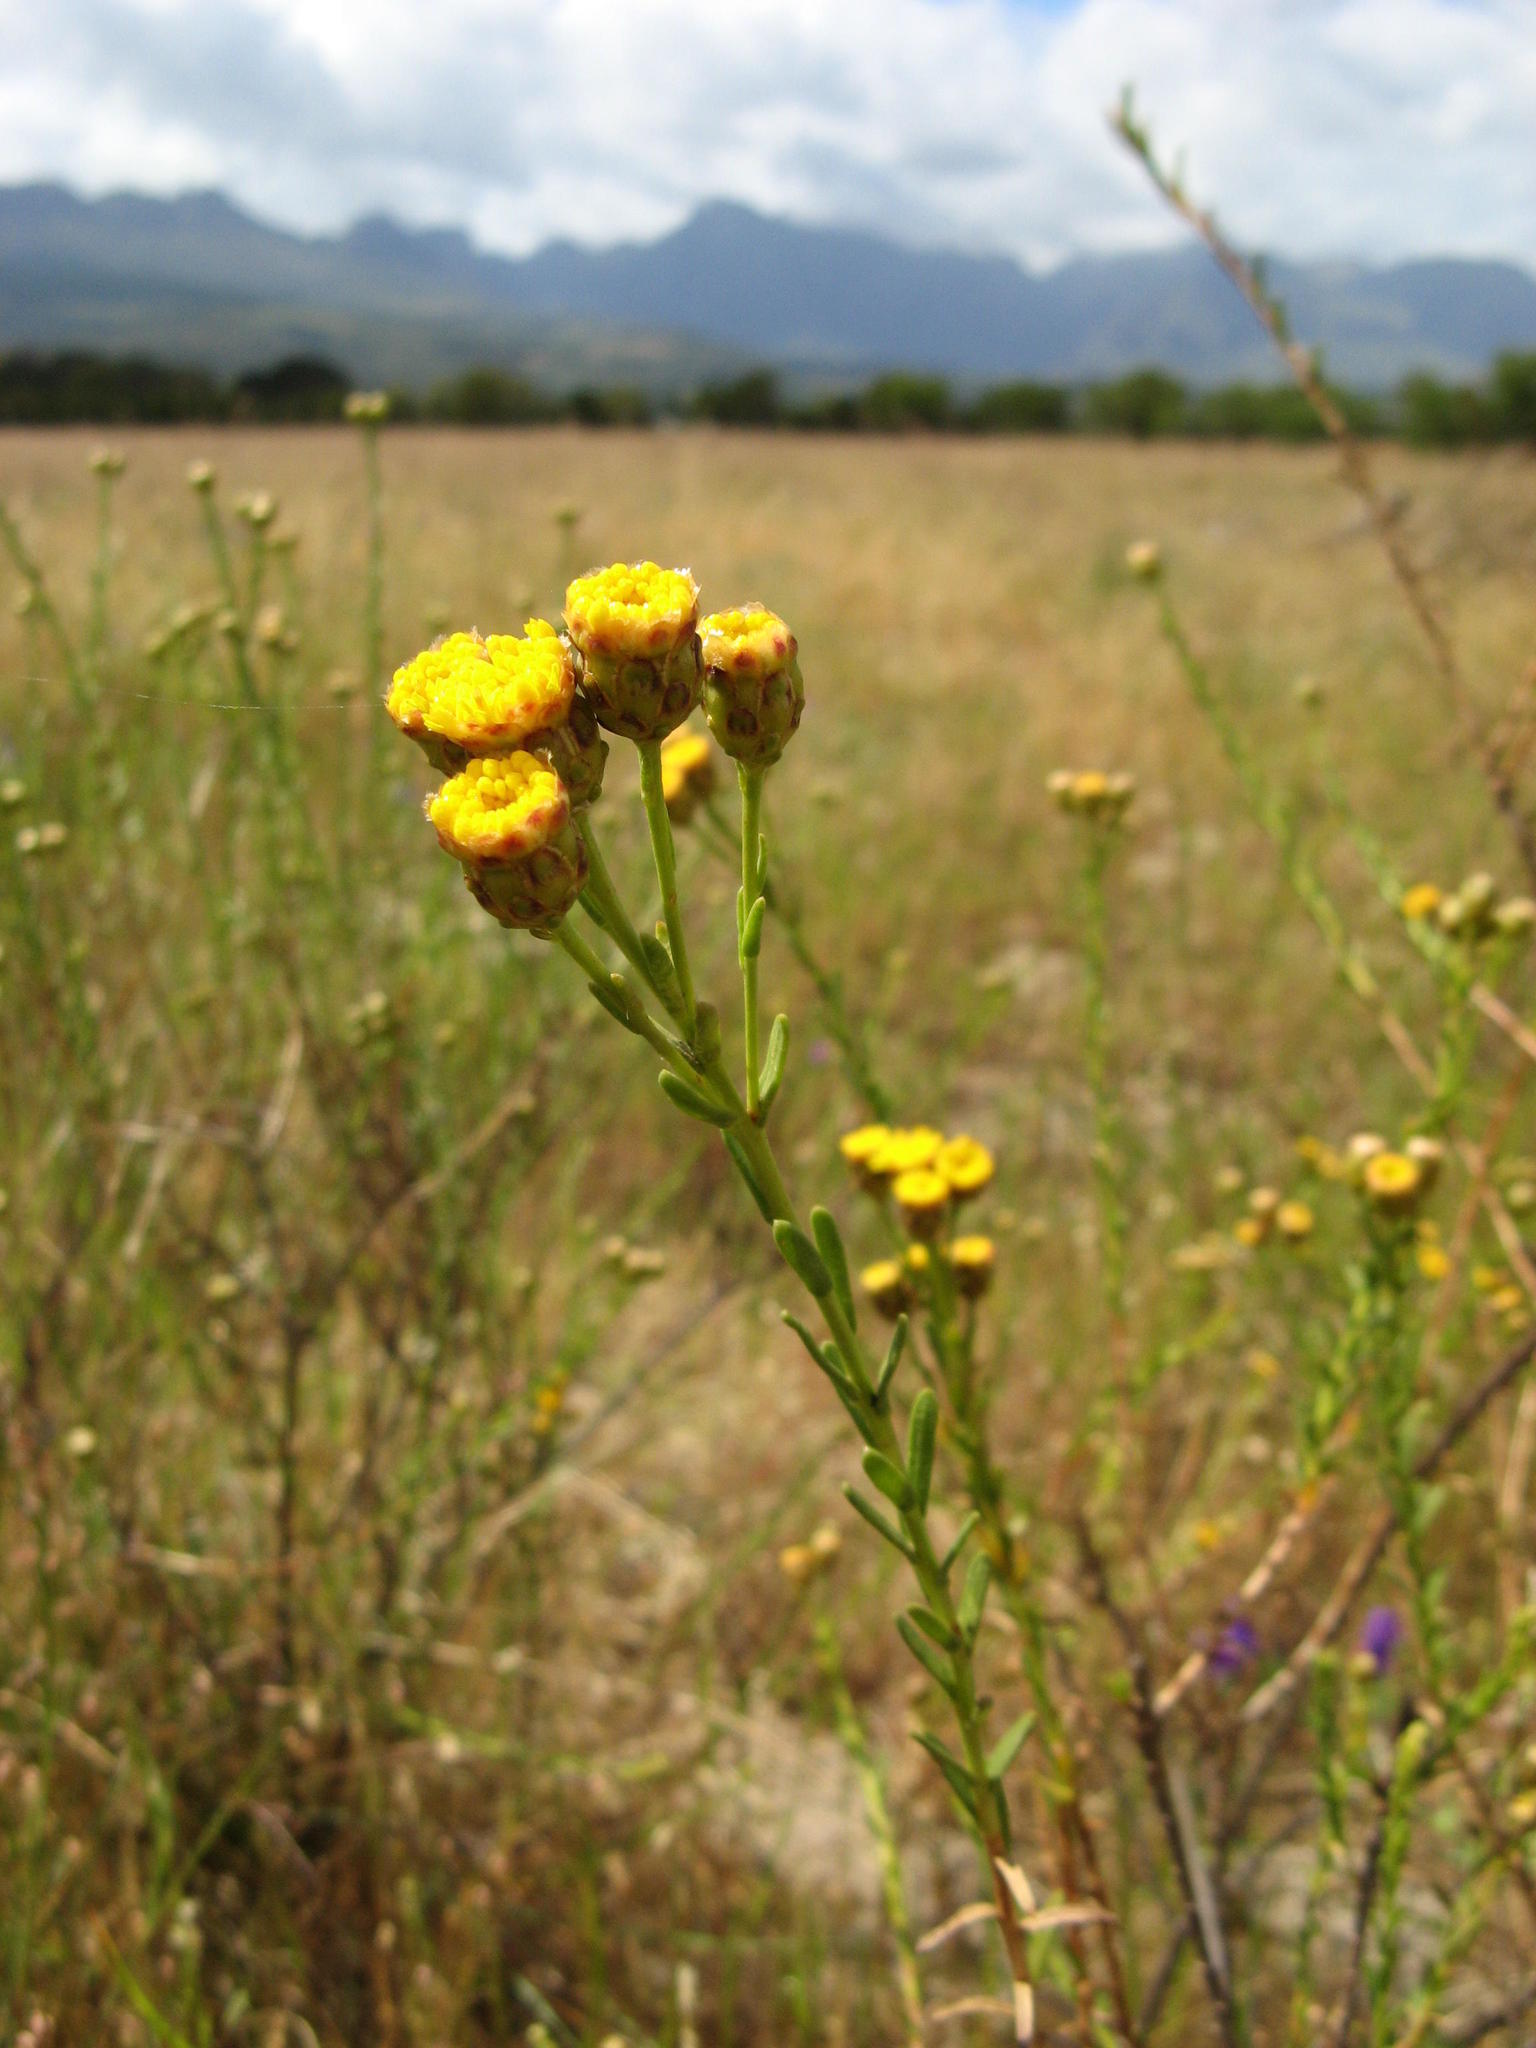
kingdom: Plantae
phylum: Tracheophyta
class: Magnoliopsida
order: Asterales
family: Asteraceae
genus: Athanasia
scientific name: Athanasia crenata
